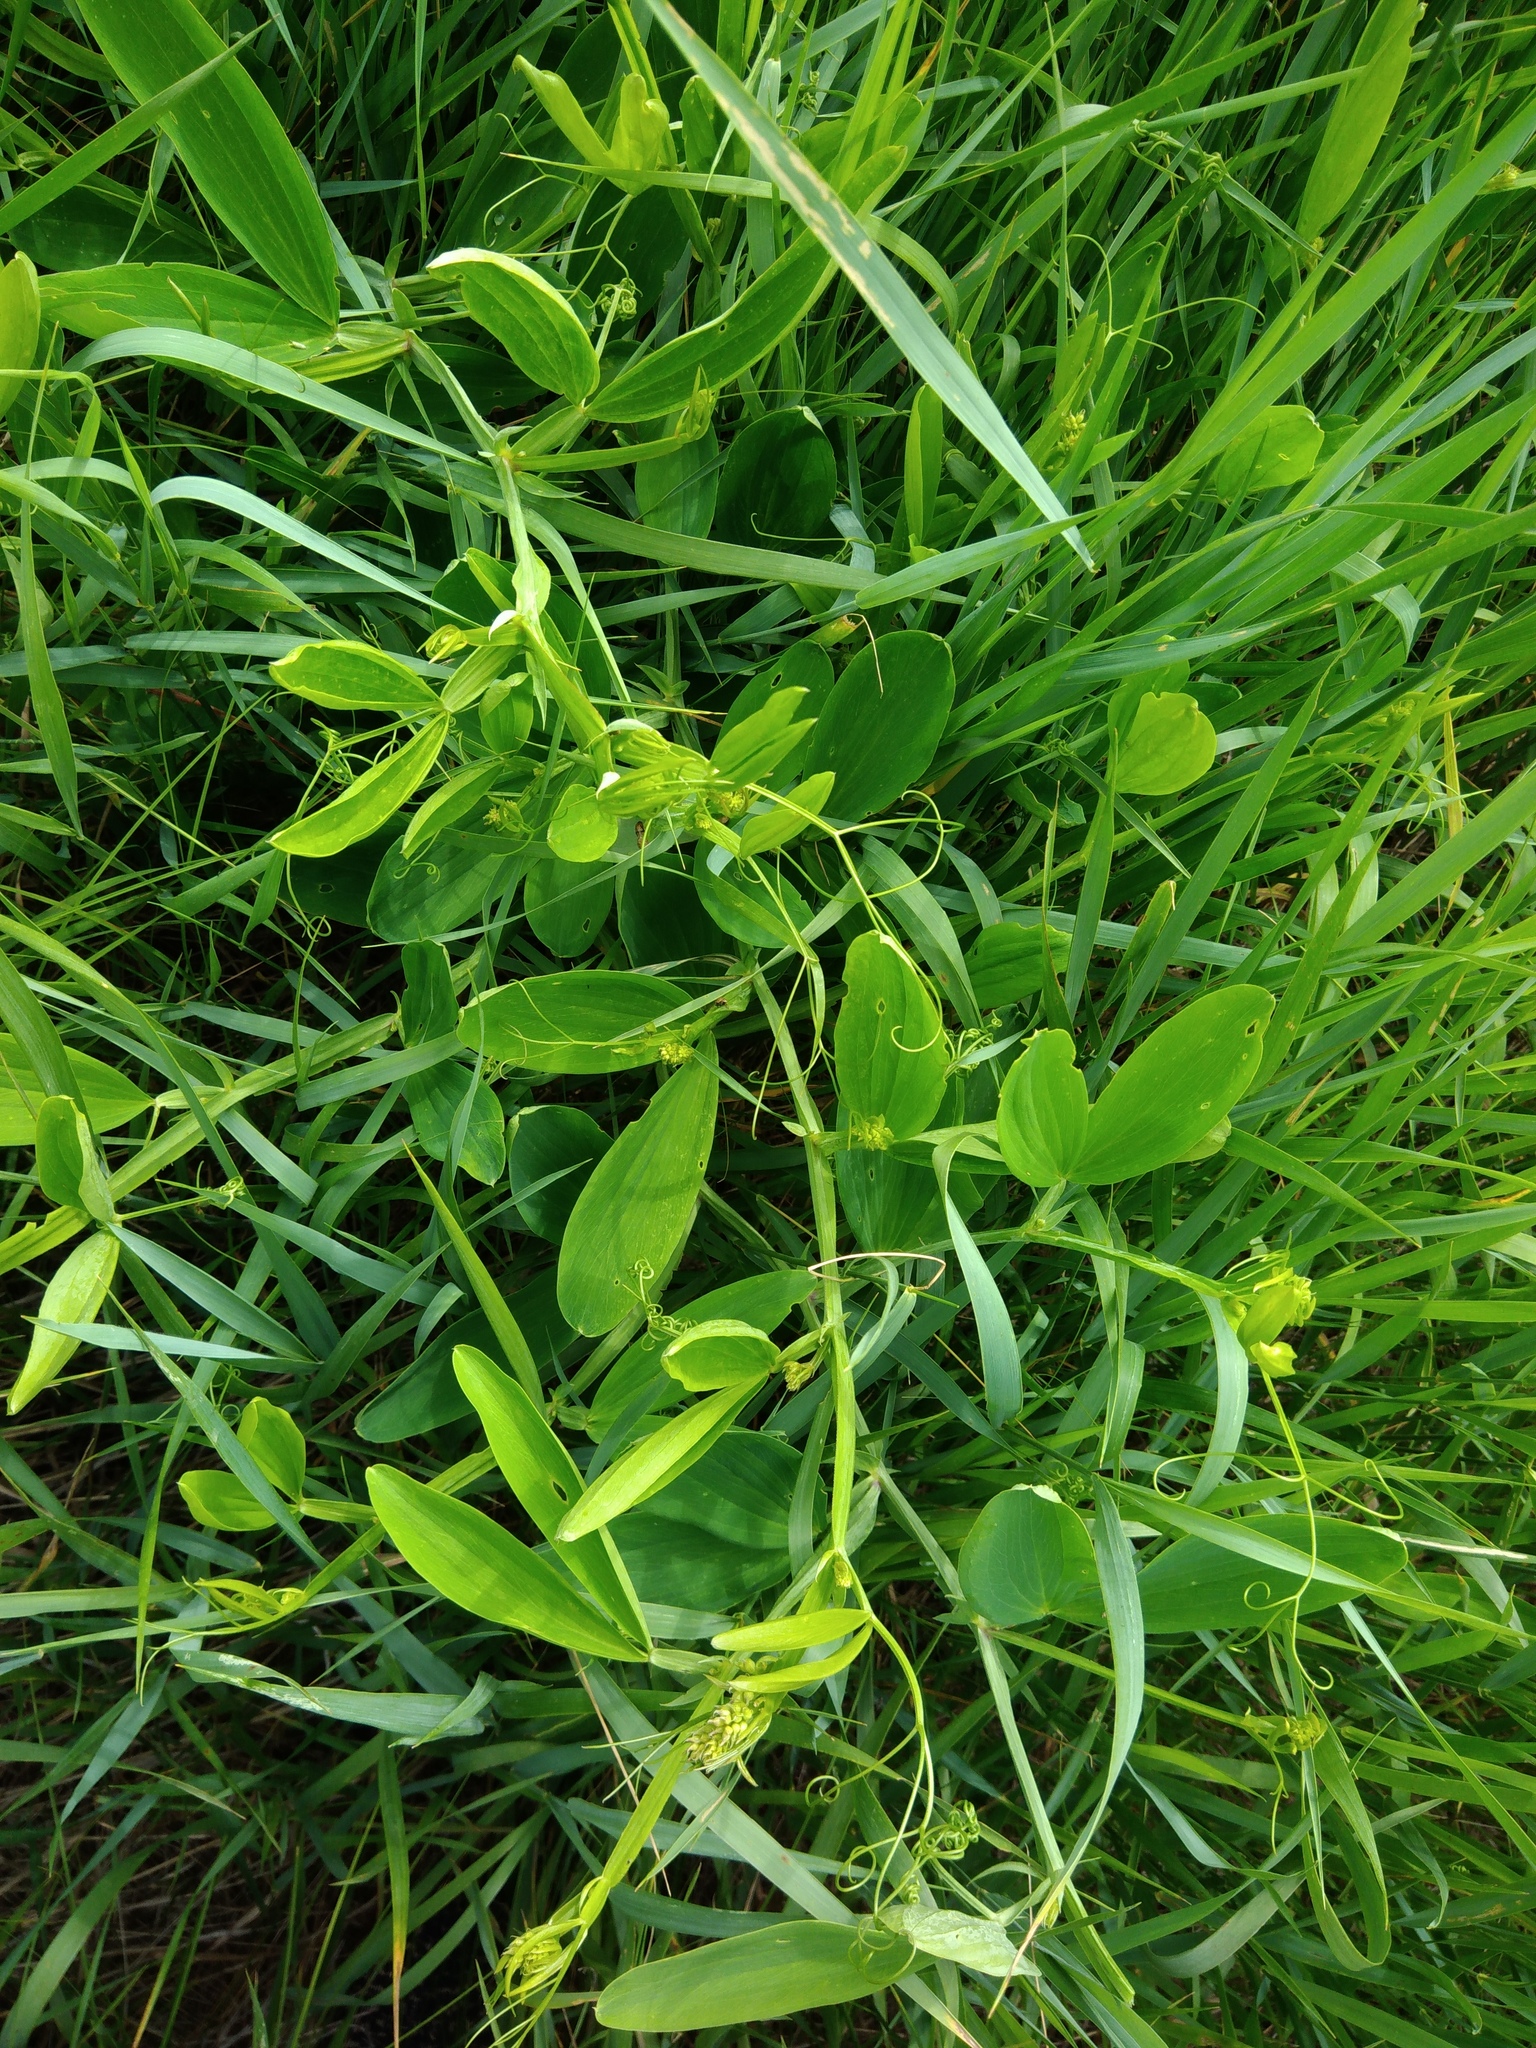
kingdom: Plantae
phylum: Tracheophyta
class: Magnoliopsida
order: Fabales
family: Fabaceae
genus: Lathyrus
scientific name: Lathyrus sylvestris
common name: Flat pea
